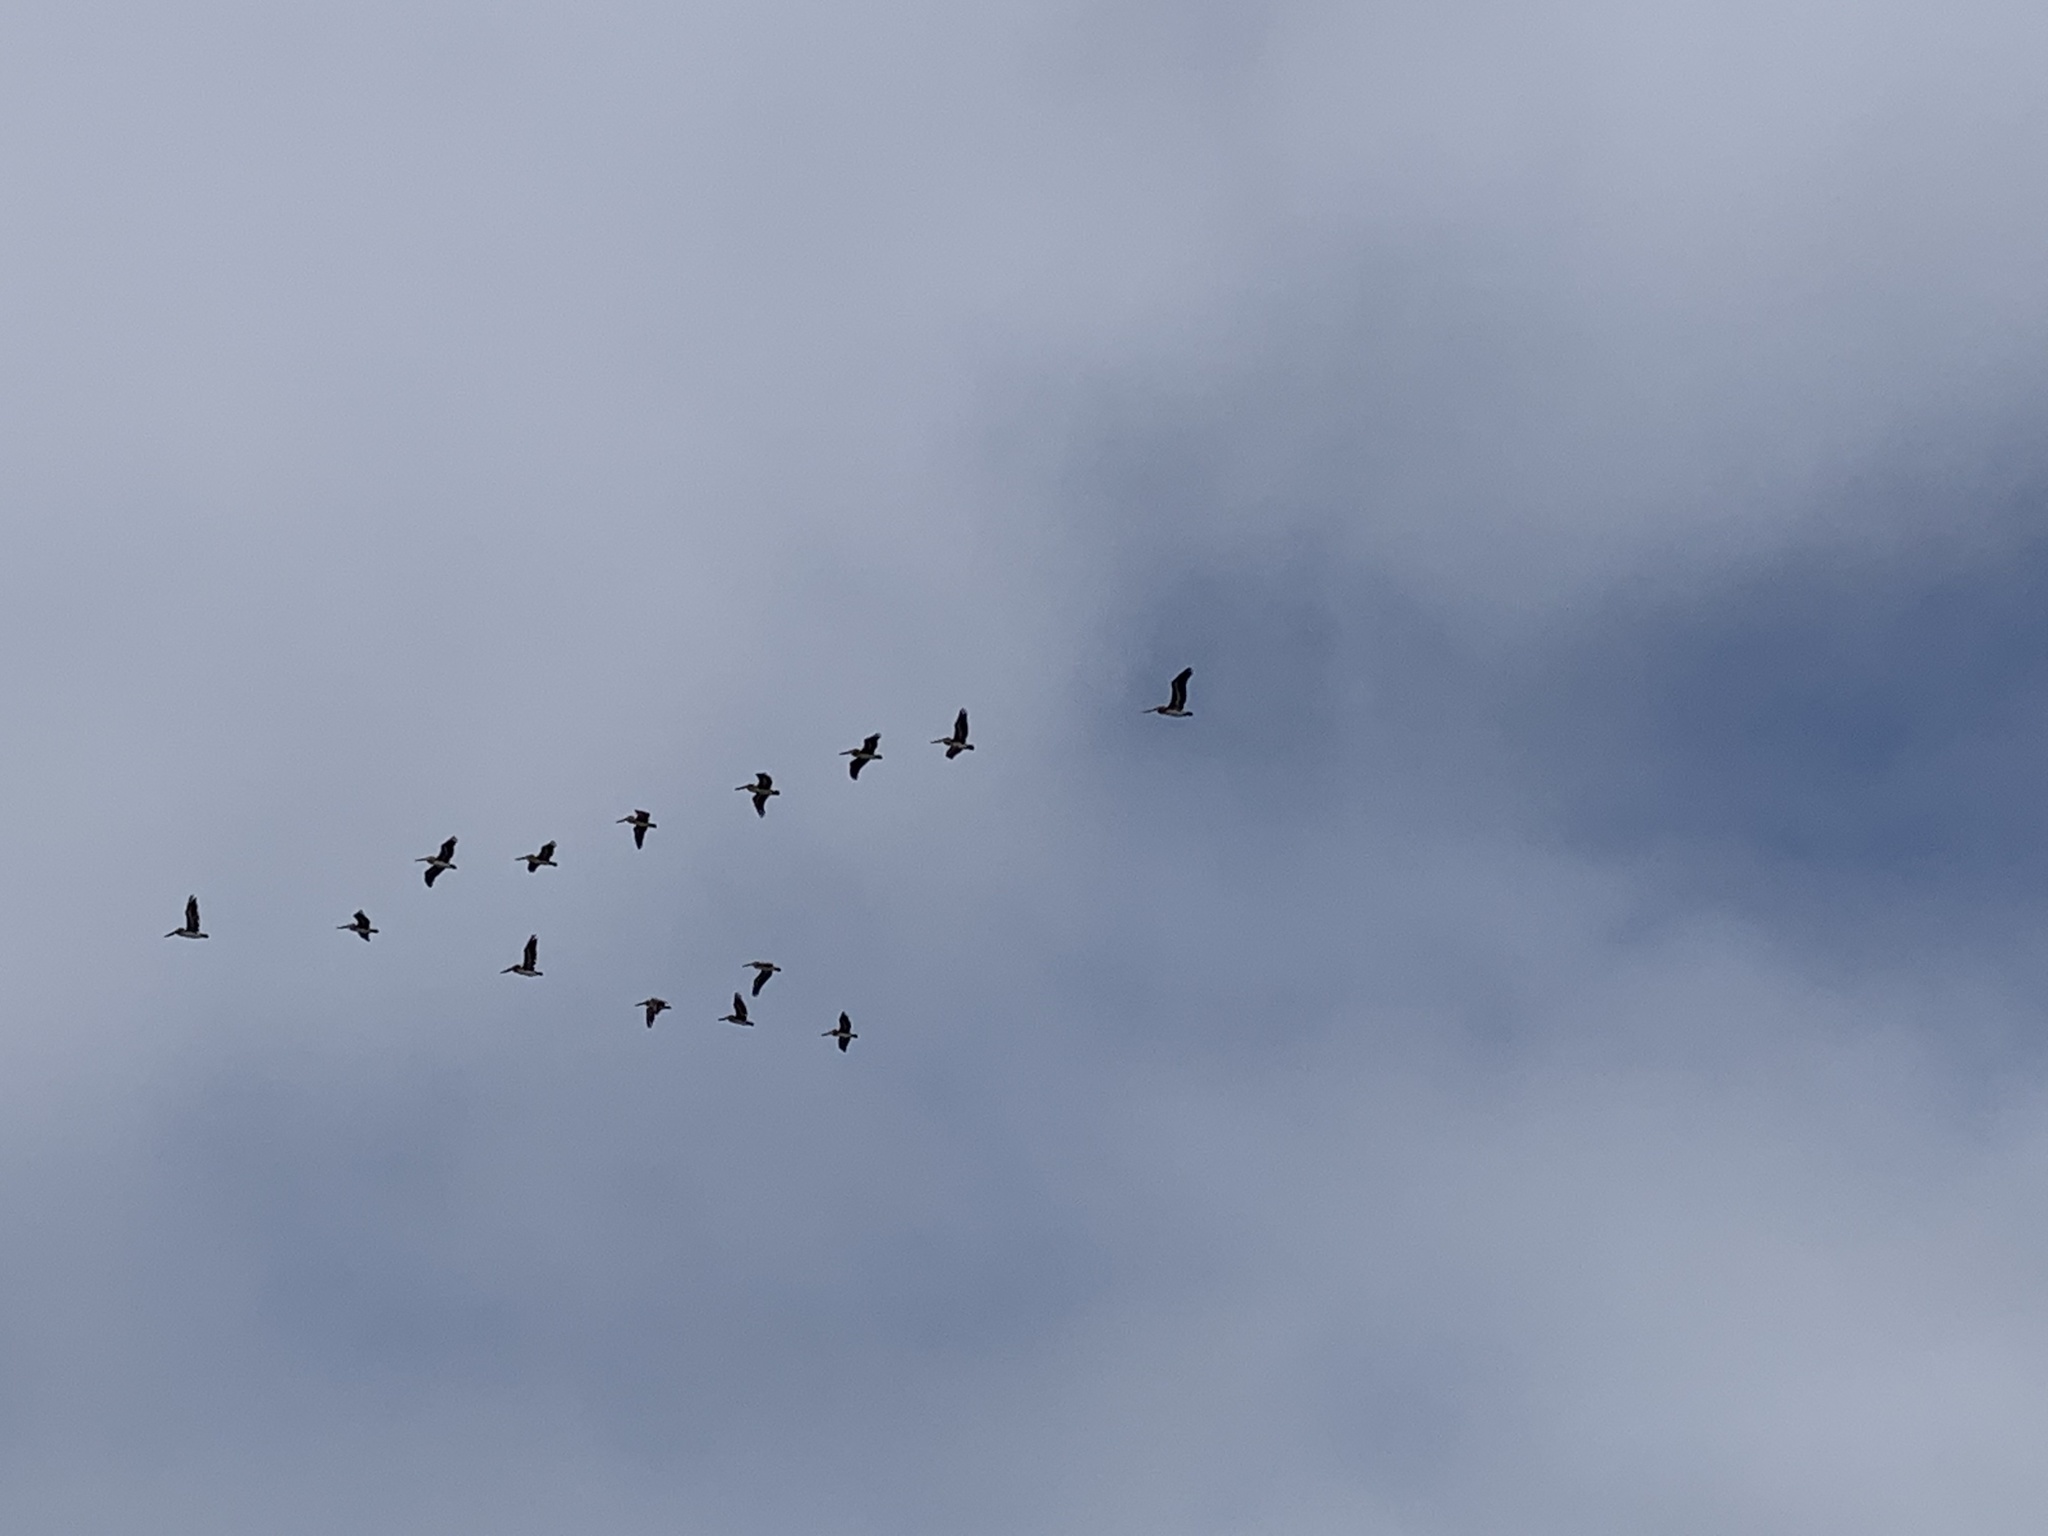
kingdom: Animalia
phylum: Chordata
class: Aves
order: Pelecaniformes
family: Pelecanidae
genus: Pelecanus
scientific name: Pelecanus occidentalis
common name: Brown pelican
